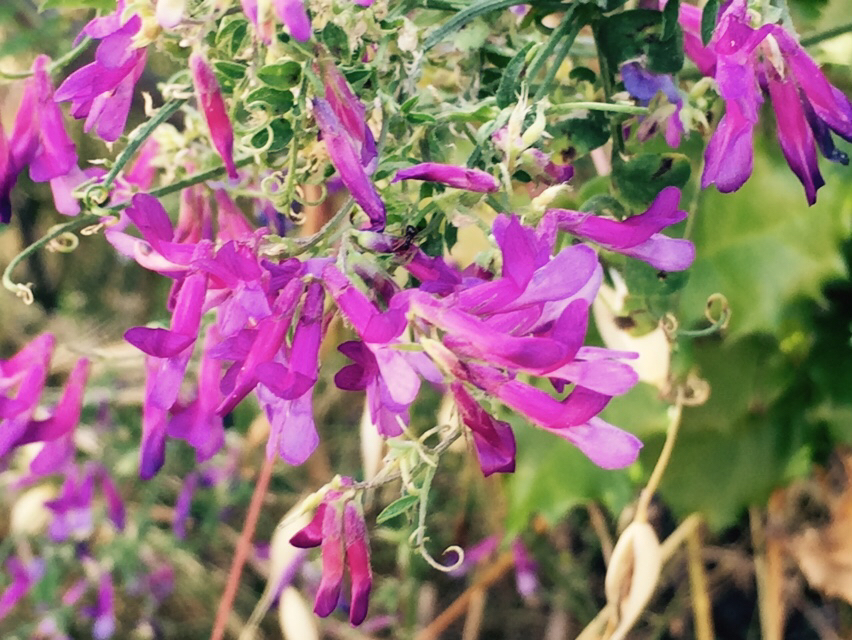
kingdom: Plantae
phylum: Tracheophyta
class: Magnoliopsida
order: Fabales
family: Fabaceae
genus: Vicia
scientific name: Vicia villosa
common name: Fodder vetch
